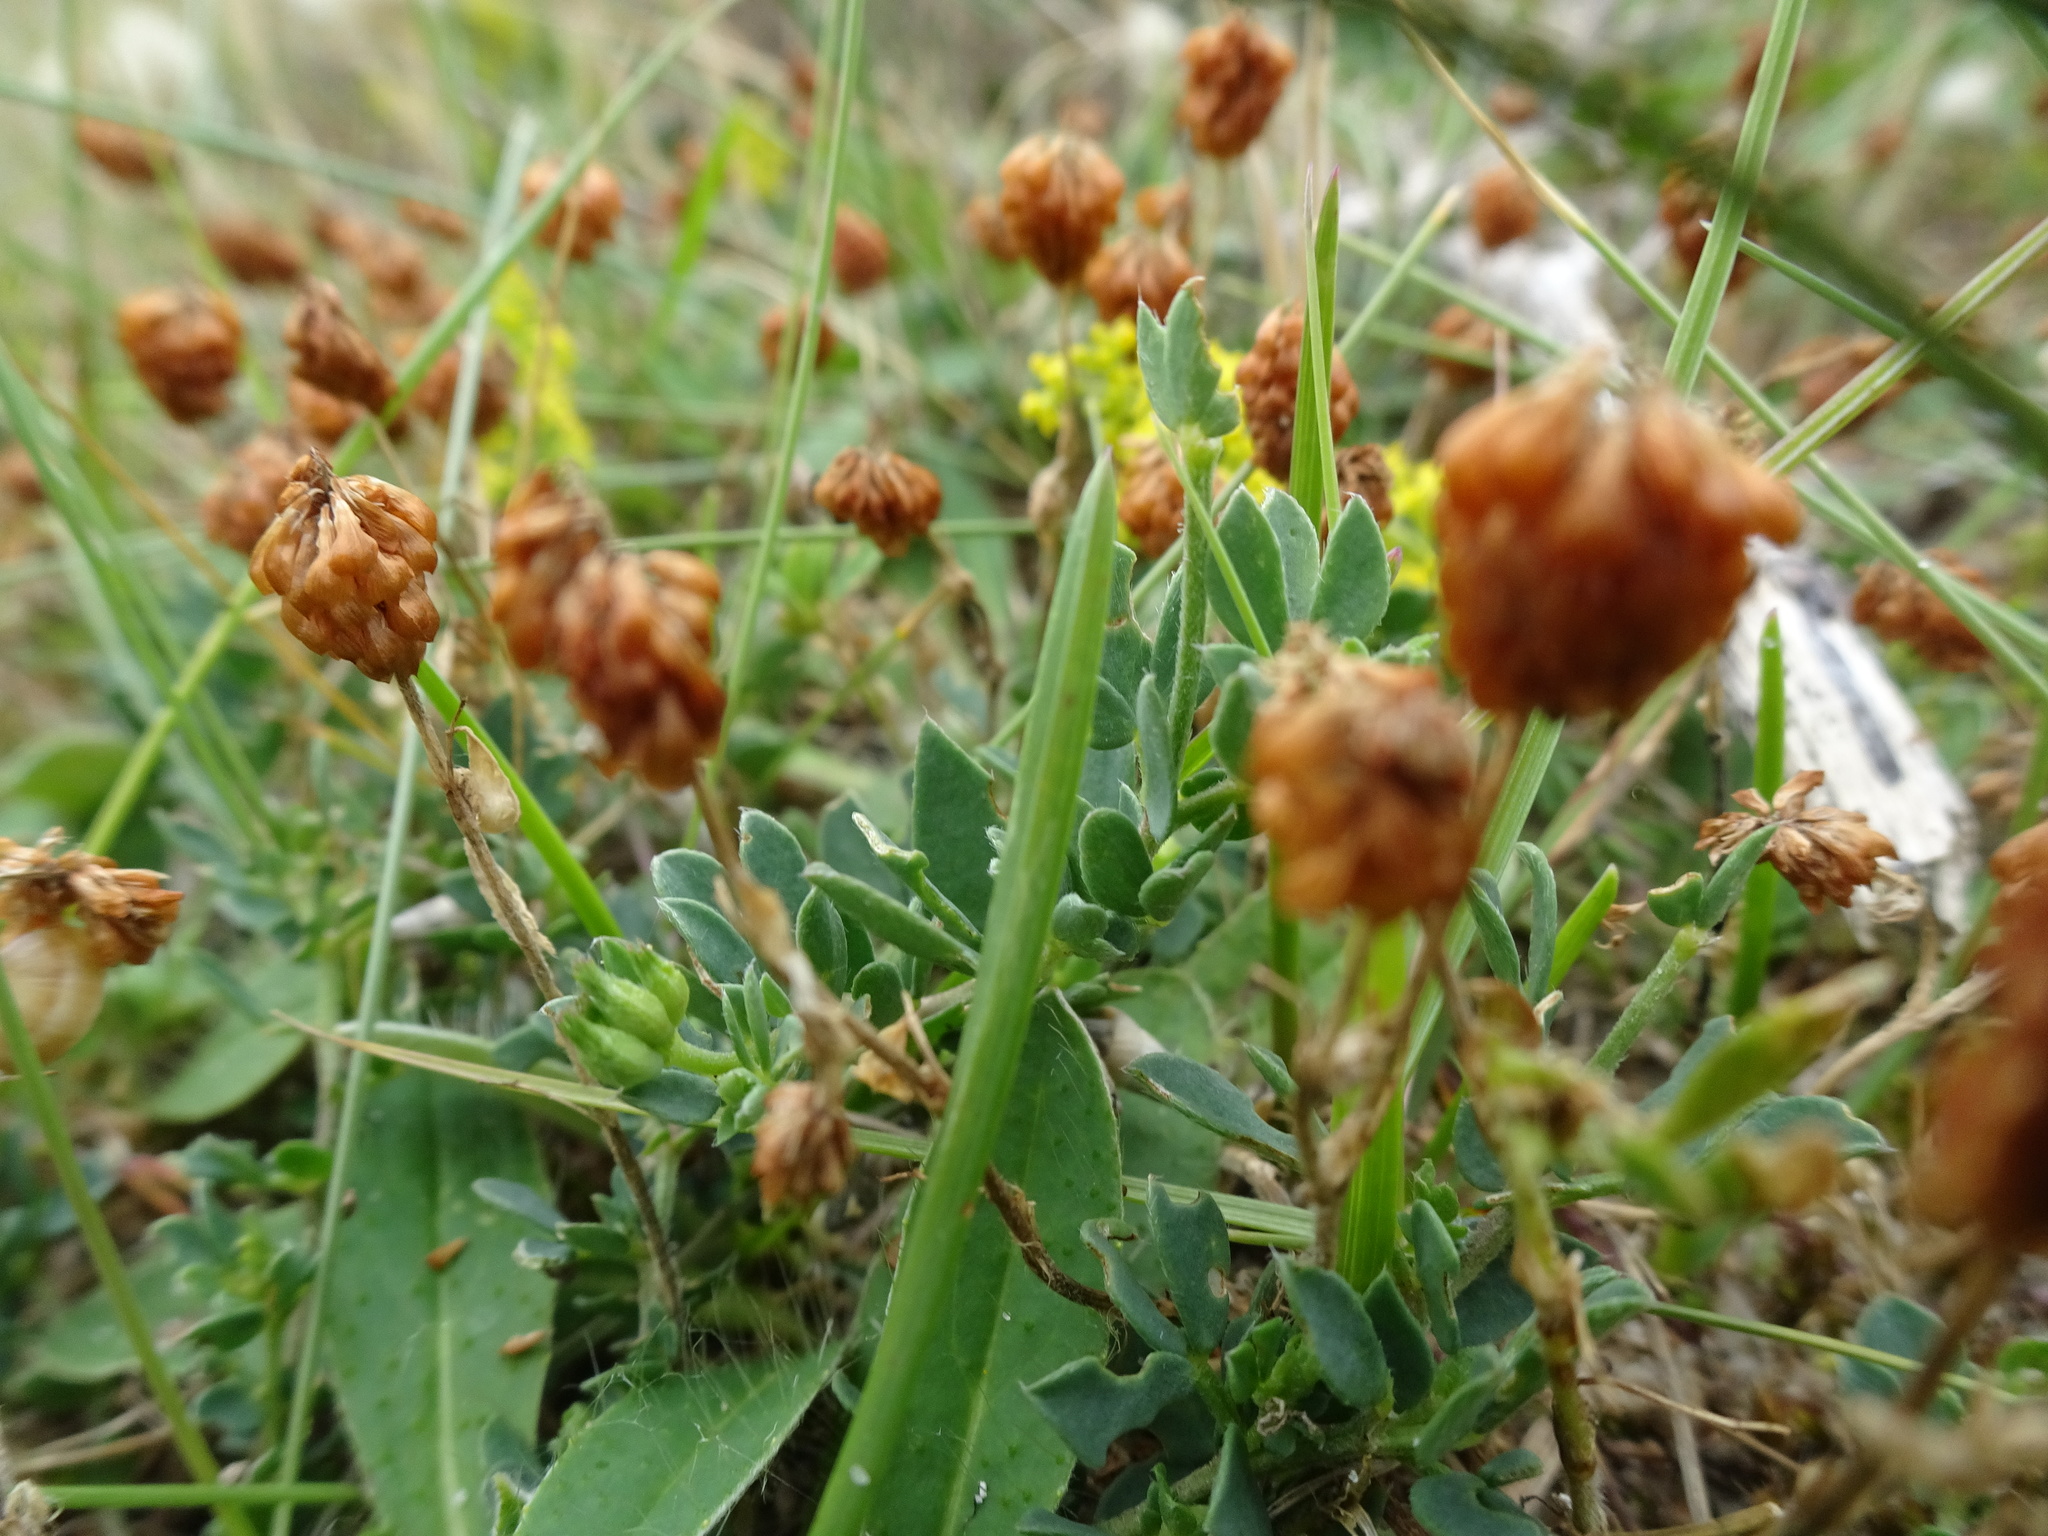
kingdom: Plantae
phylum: Tracheophyta
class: Magnoliopsida
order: Fabales
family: Fabaceae
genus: Trifolium
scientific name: Trifolium campestre
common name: Field clover
